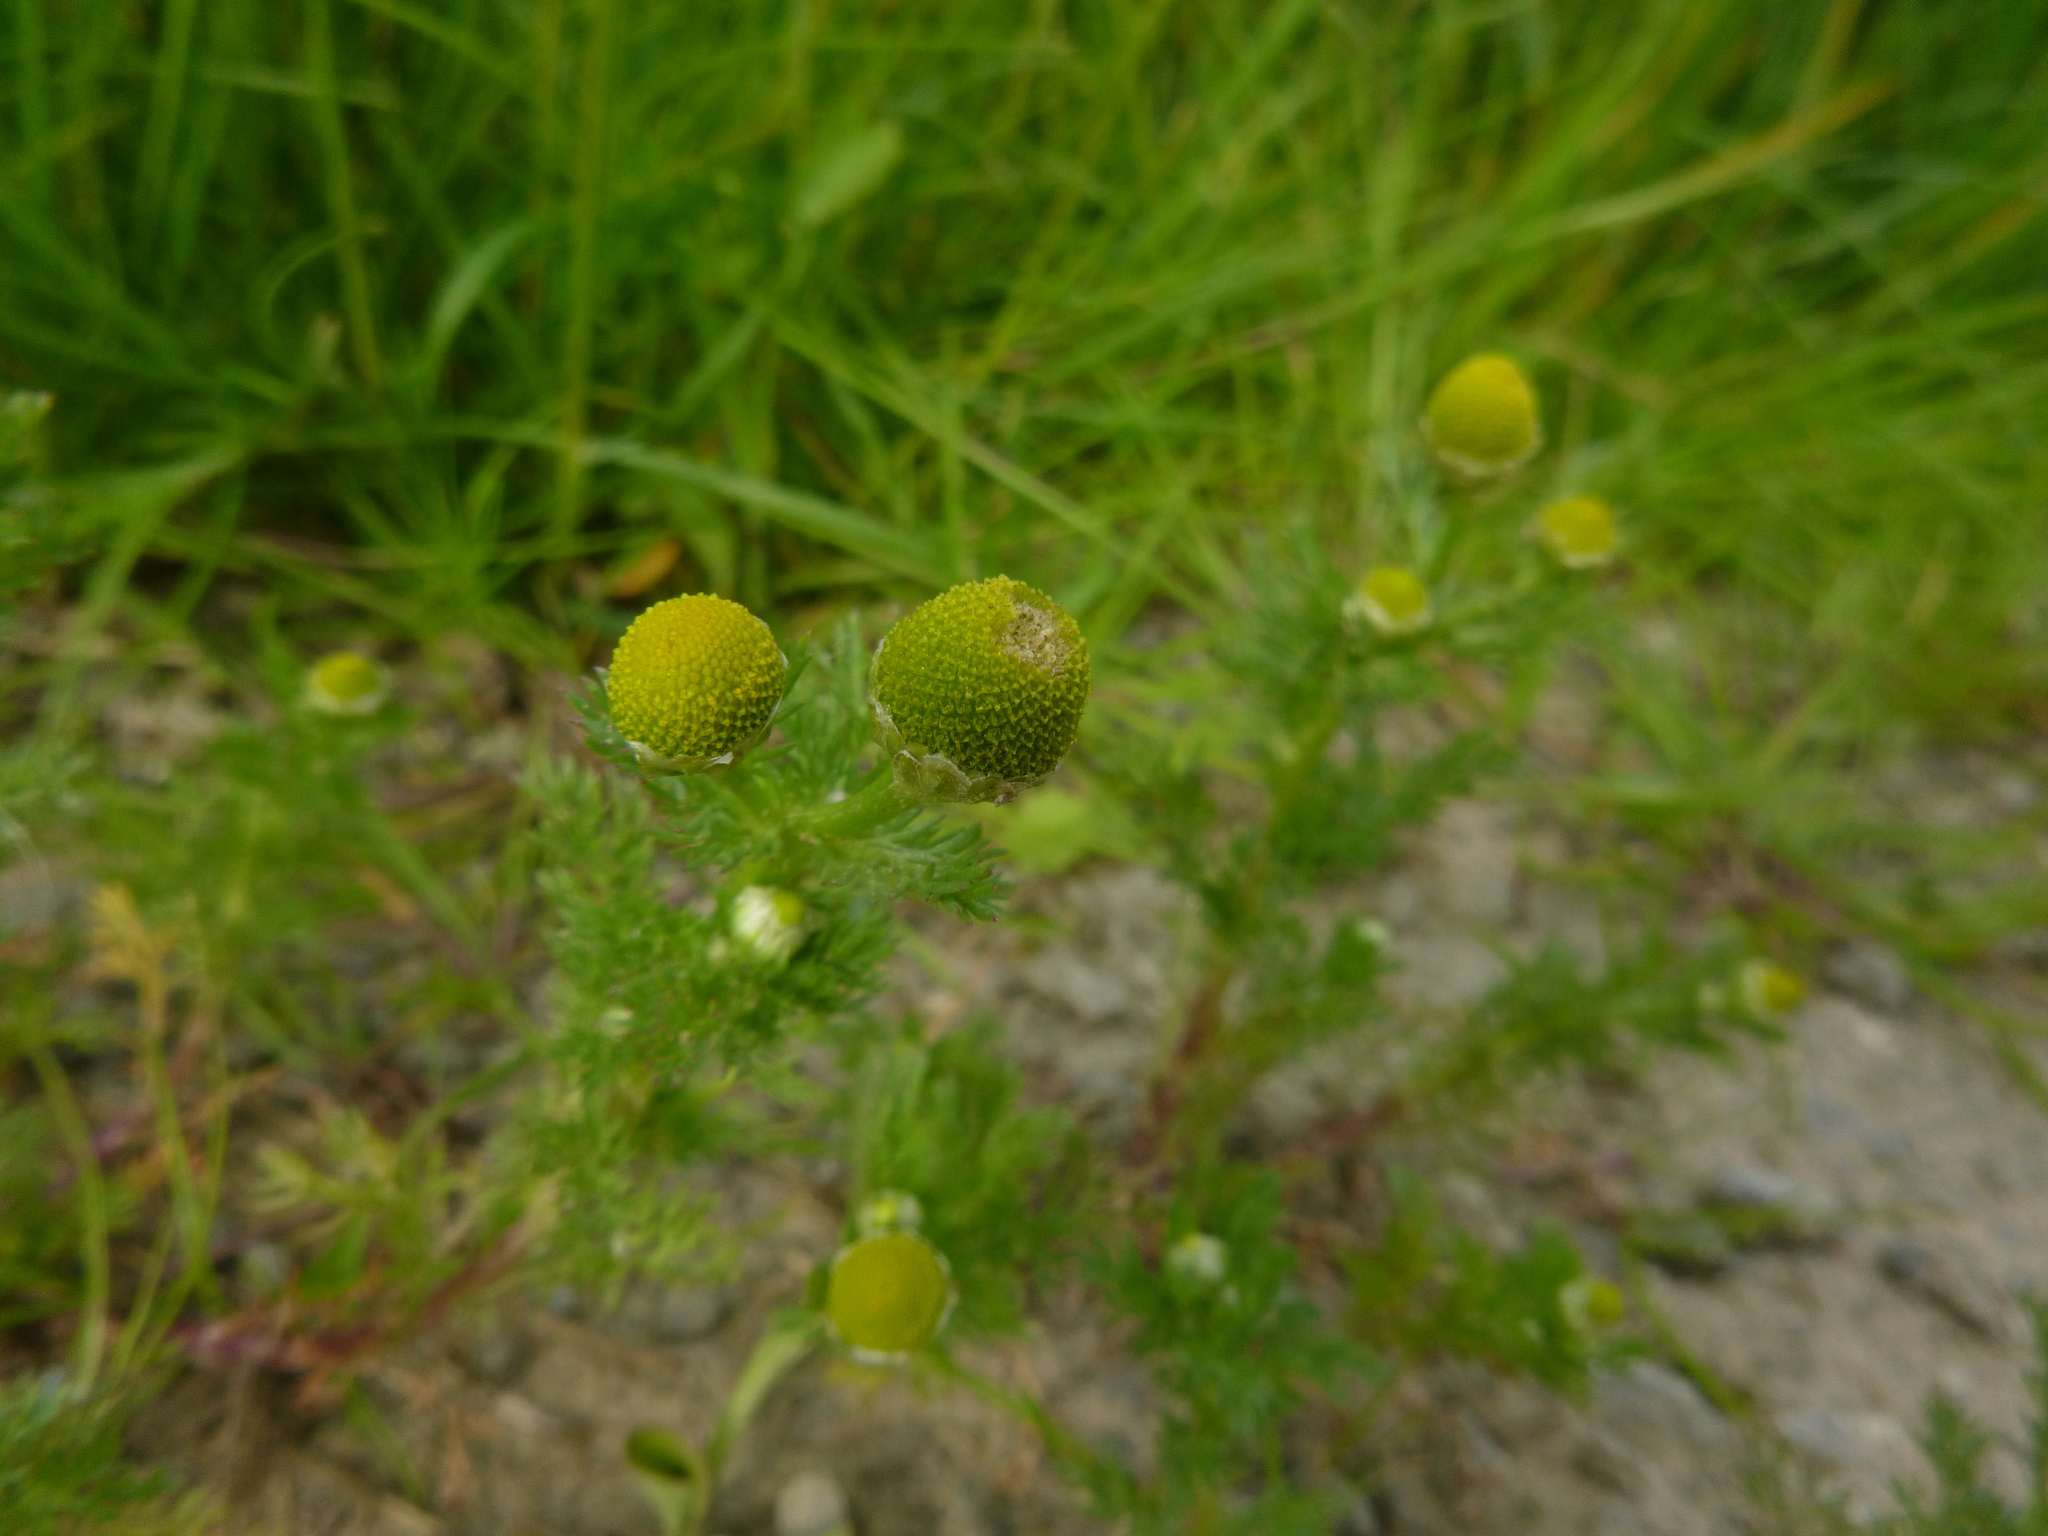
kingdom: Plantae
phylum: Tracheophyta
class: Magnoliopsida
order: Asterales
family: Asteraceae
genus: Matricaria
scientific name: Matricaria discoidea
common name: Disc mayweed
